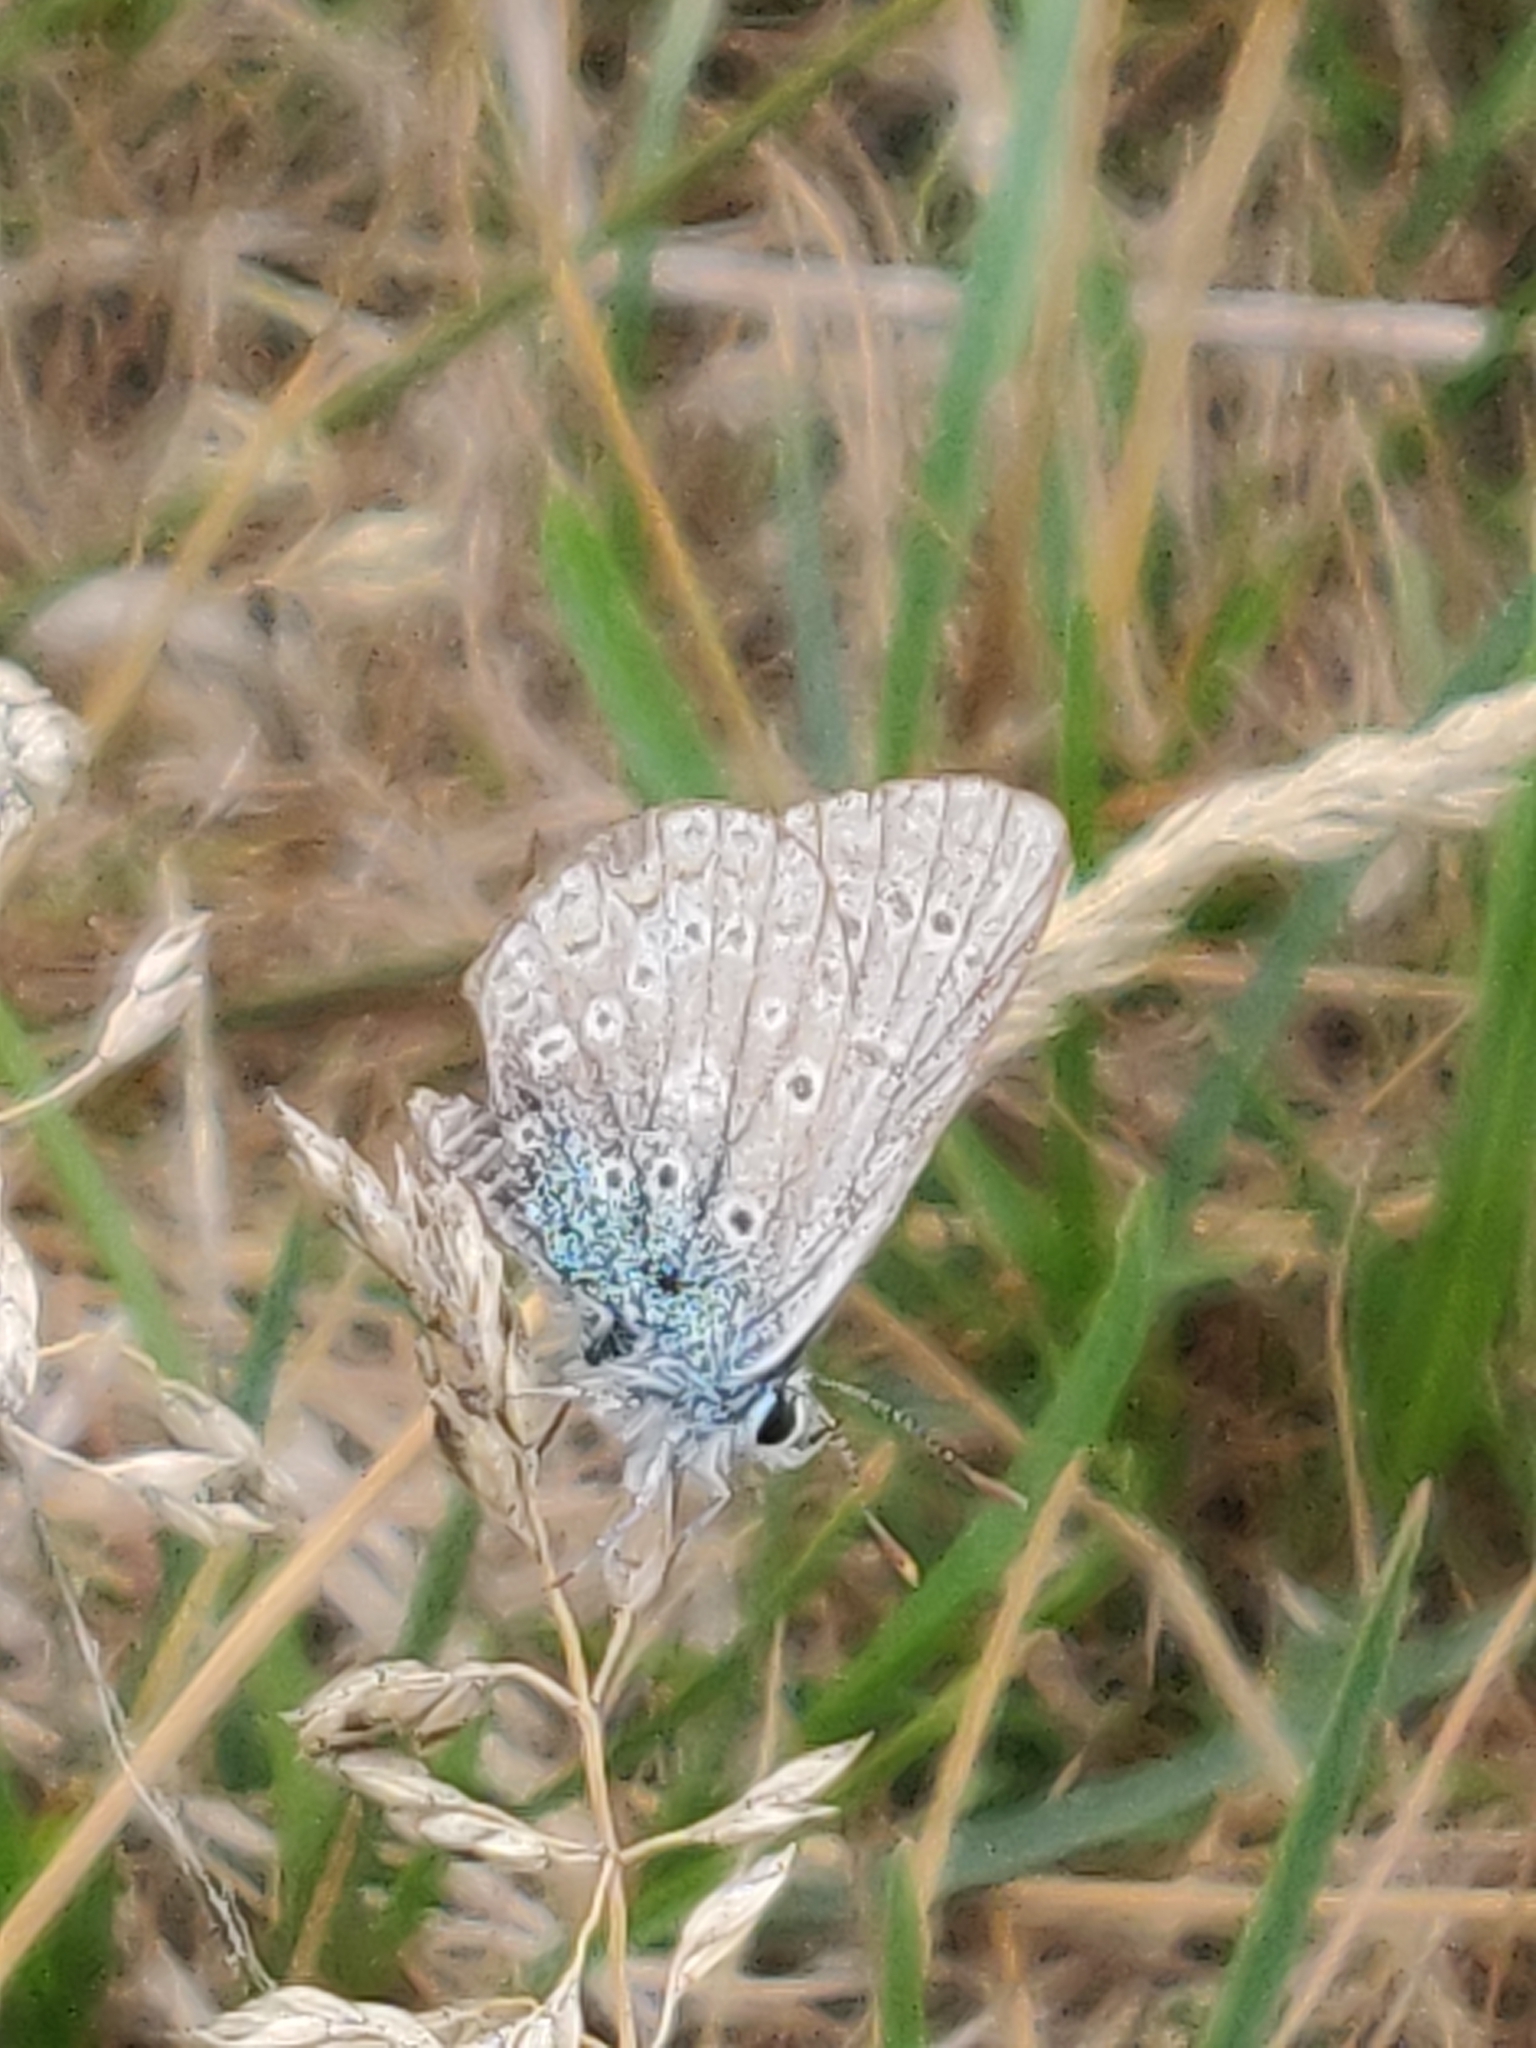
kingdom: Animalia
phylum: Arthropoda
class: Insecta
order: Lepidoptera
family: Lycaenidae
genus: Polyommatus
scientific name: Polyommatus icarus
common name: Common blue
